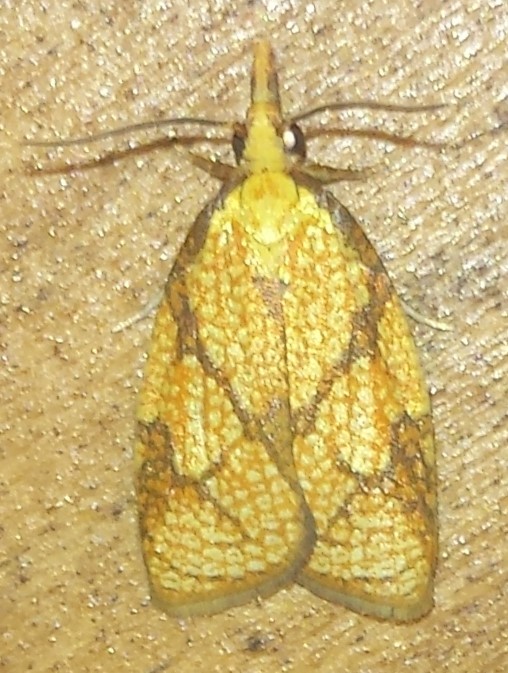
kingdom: Animalia
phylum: Arthropoda
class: Insecta
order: Lepidoptera
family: Tortricidae
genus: Cenopis
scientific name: Cenopis reticulatana
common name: Reticulated fruitworm moth
